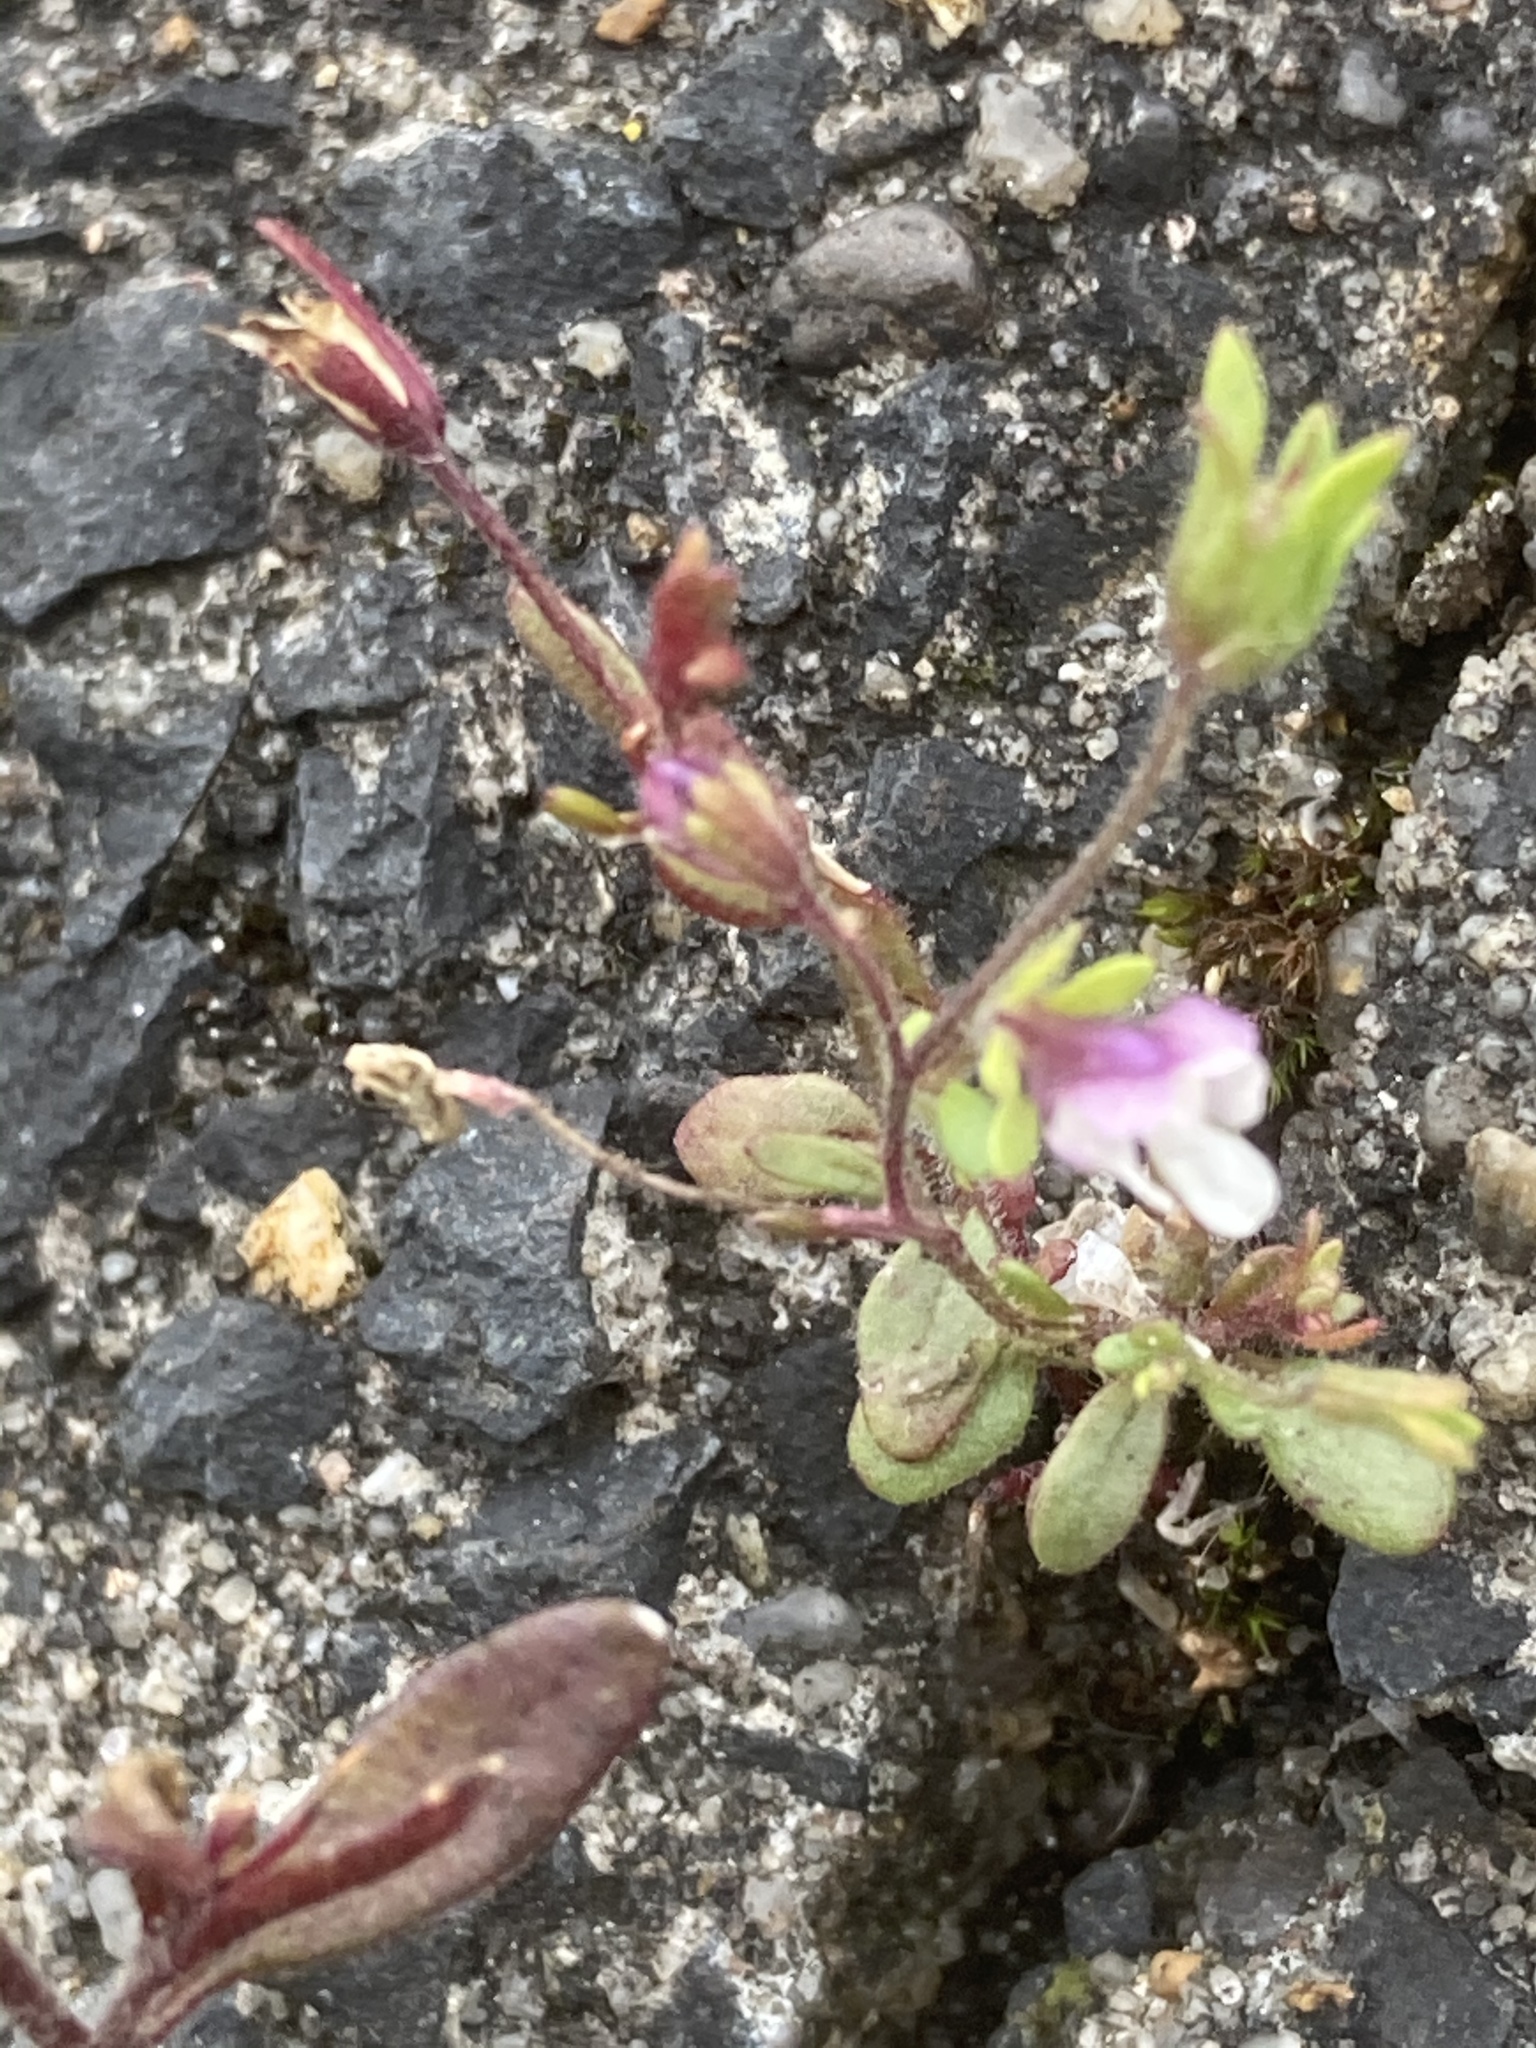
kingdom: Plantae
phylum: Tracheophyta
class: Magnoliopsida
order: Lamiales
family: Plantaginaceae
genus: Chaenorhinum
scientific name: Chaenorhinum minus
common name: Dwarf snapdragon
